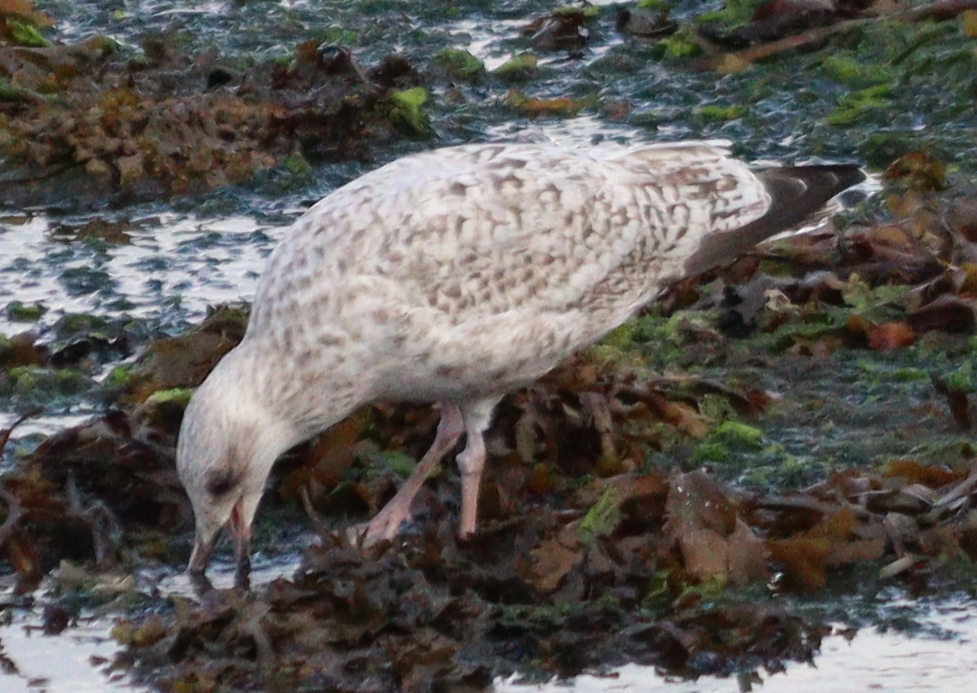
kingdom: Animalia
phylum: Chordata
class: Aves
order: Charadriiformes
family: Laridae
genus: Larus
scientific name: Larus argentatus
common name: Herring gull
